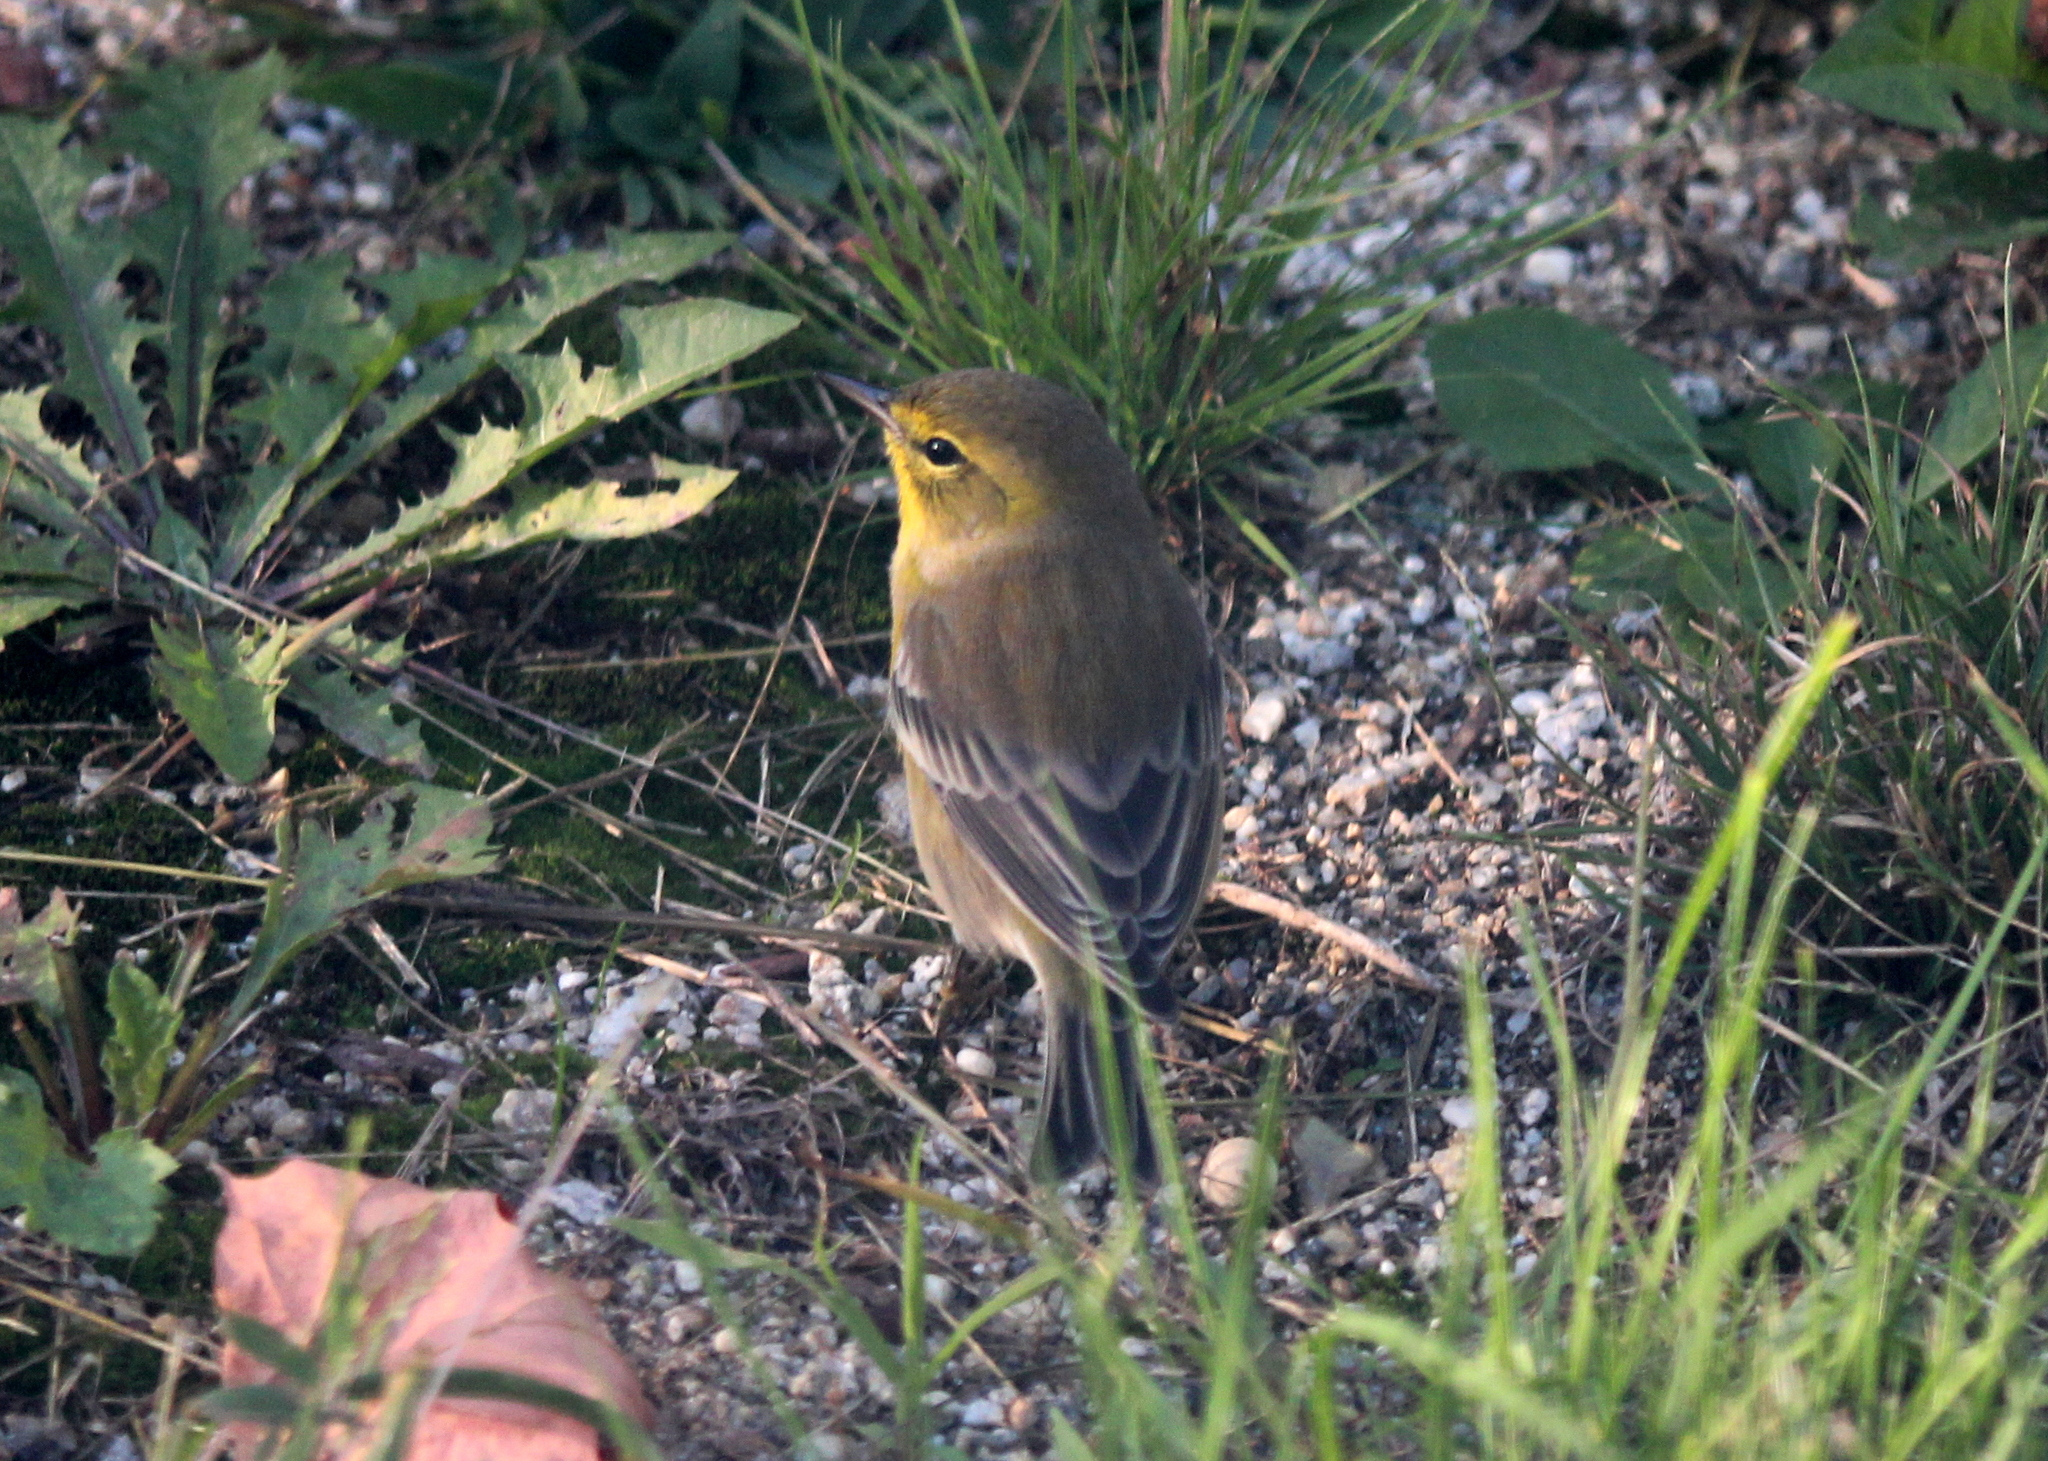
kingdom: Animalia
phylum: Chordata
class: Aves
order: Passeriformes
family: Parulidae
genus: Setophaga
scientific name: Setophaga pinus
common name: Pine warbler
